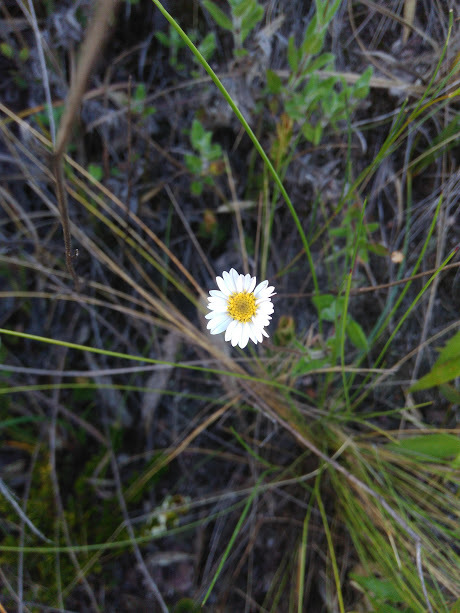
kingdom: Plantae
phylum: Tracheophyta
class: Magnoliopsida
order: Asterales
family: Asteraceae
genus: Noticastrum
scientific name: Noticastrum marginatum
